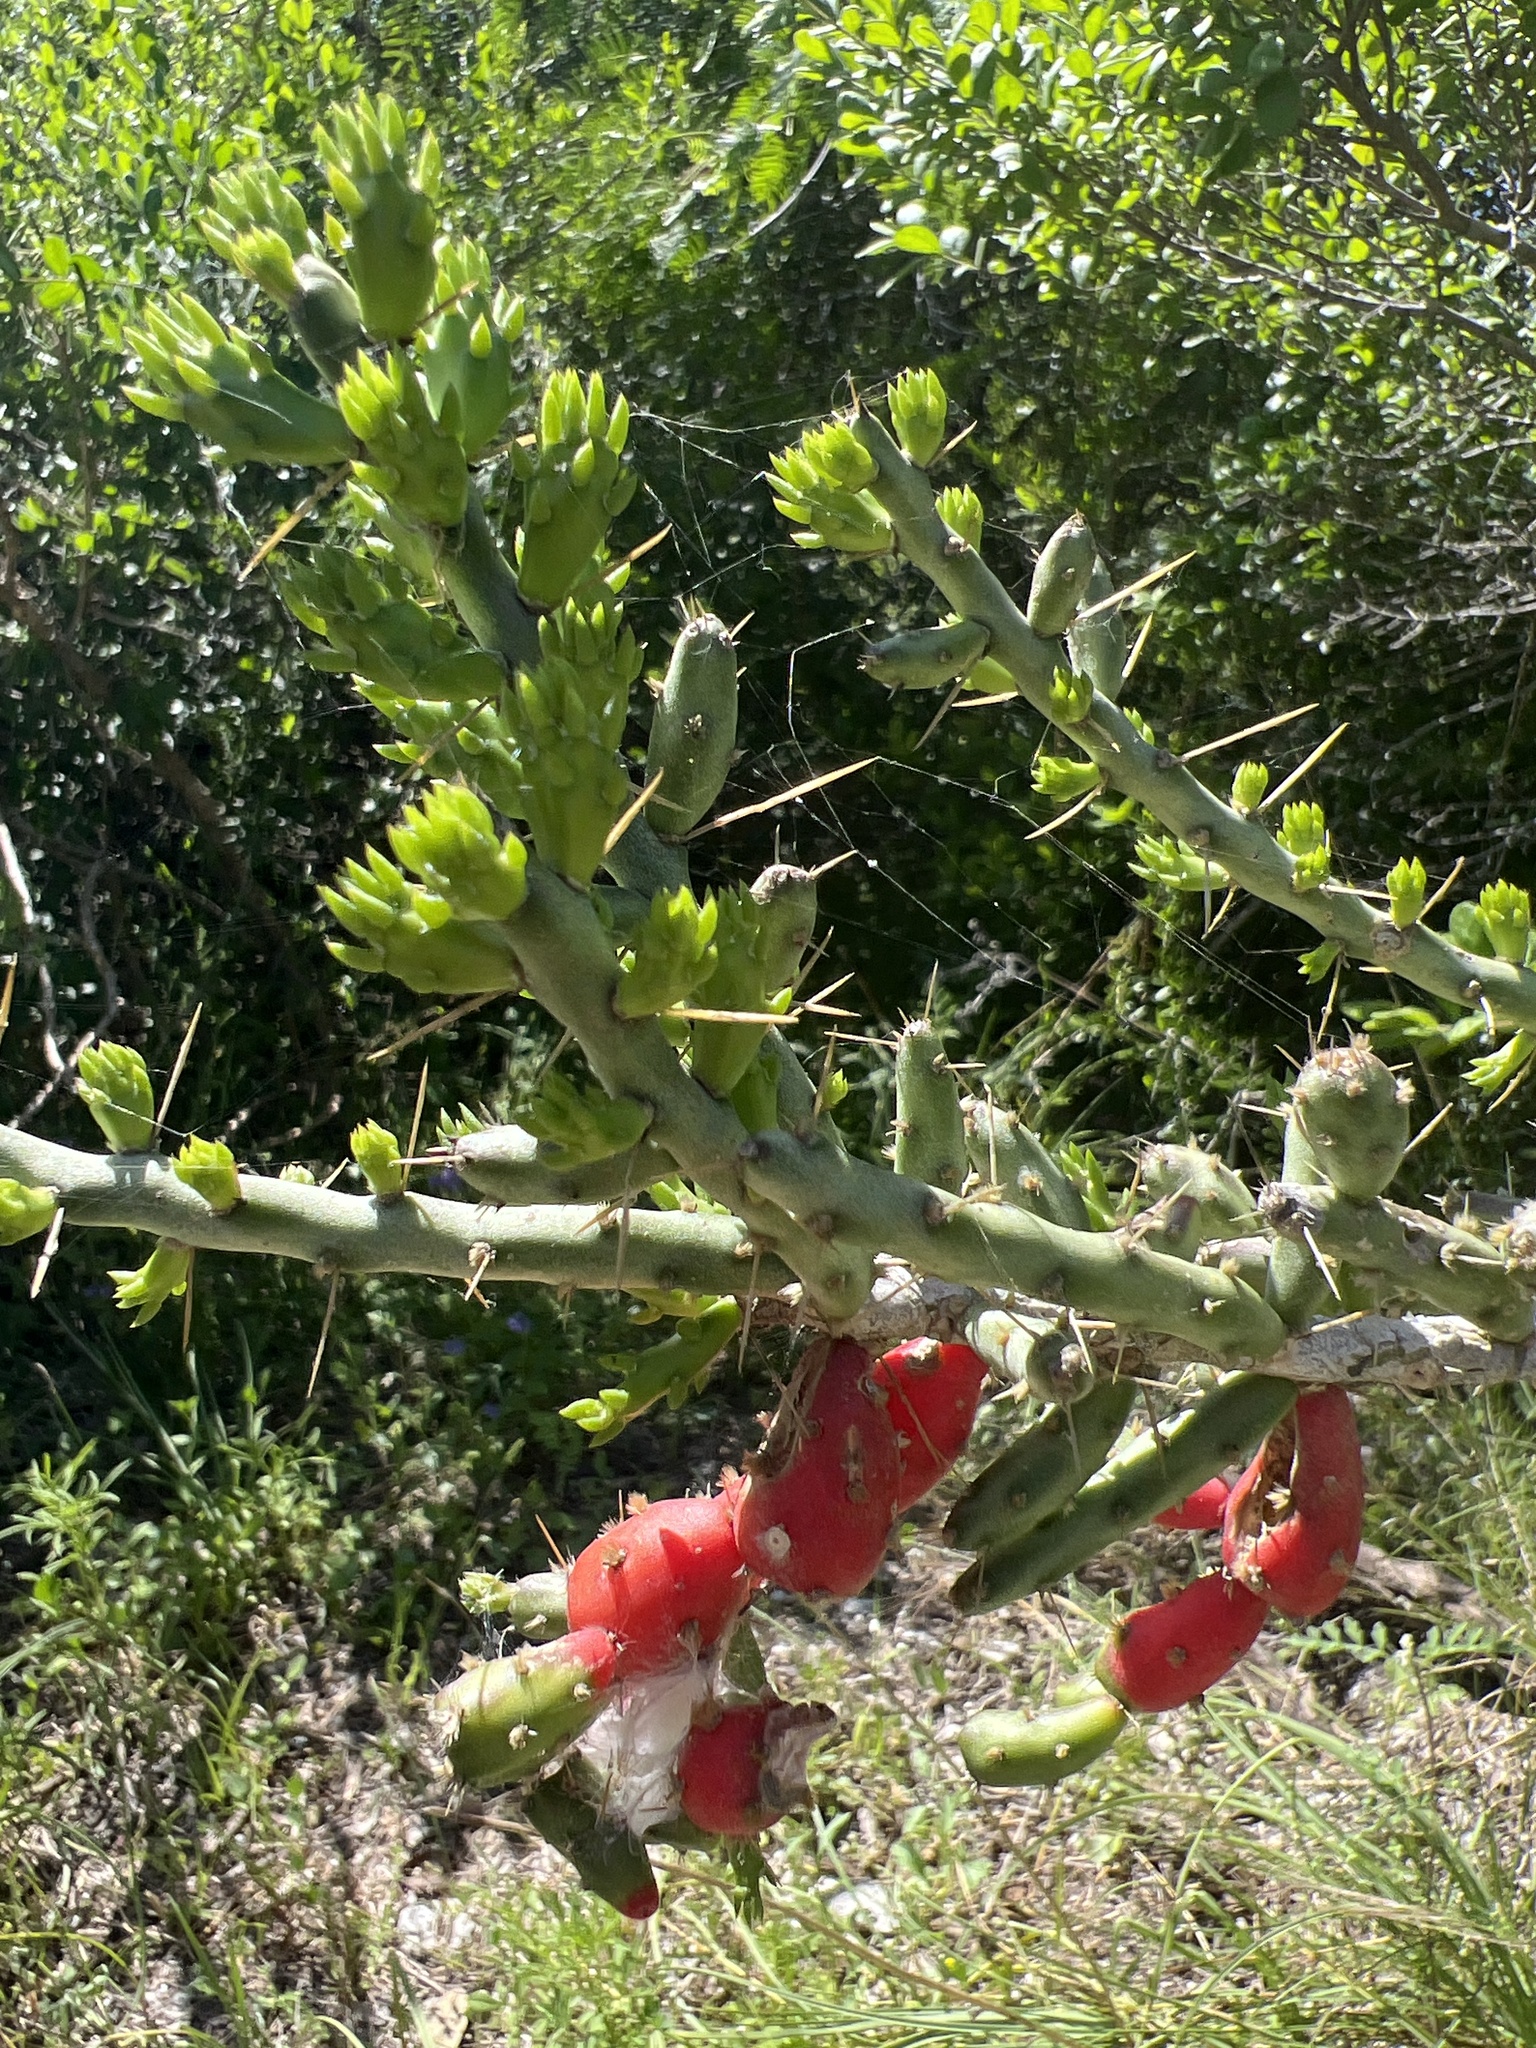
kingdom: Plantae
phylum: Tracheophyta
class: Magnoliopsida
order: Caryophyllales
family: Cactaceae
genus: Cylindropuntia
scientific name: Cylindropuntia leptocaulis
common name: Christmas cactus
